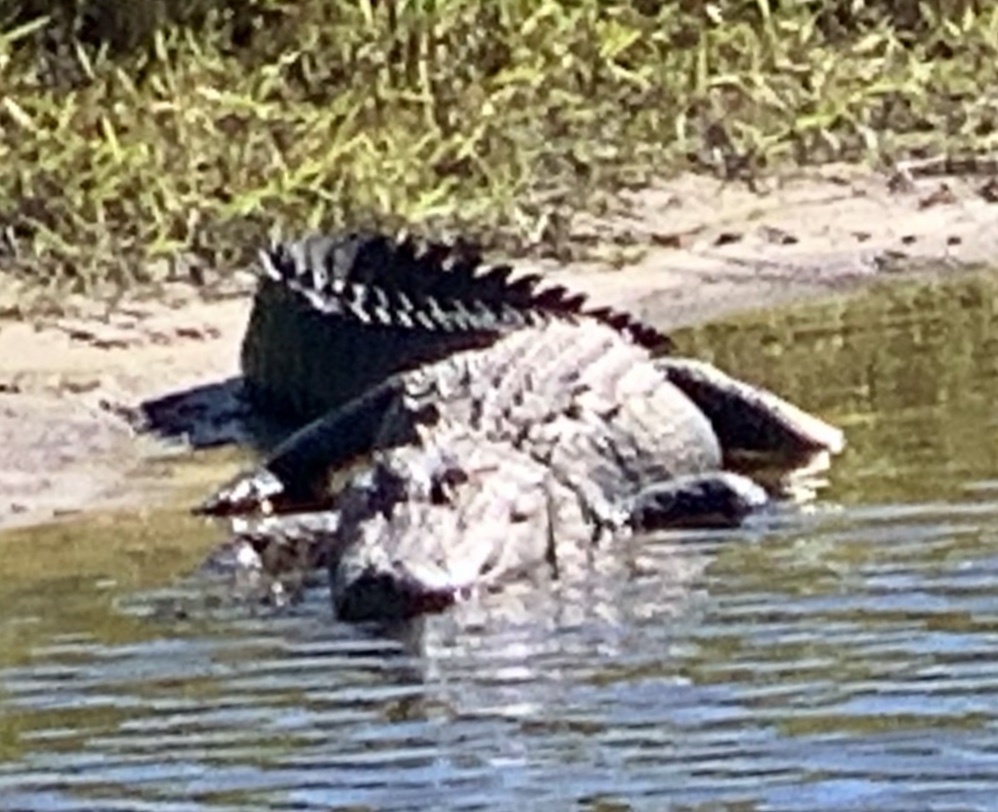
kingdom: Animalia
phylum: Chordata
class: Crocodylia
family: Alligatoridae
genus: Alligator
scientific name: Alligator mississippiensis
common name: American alligator
